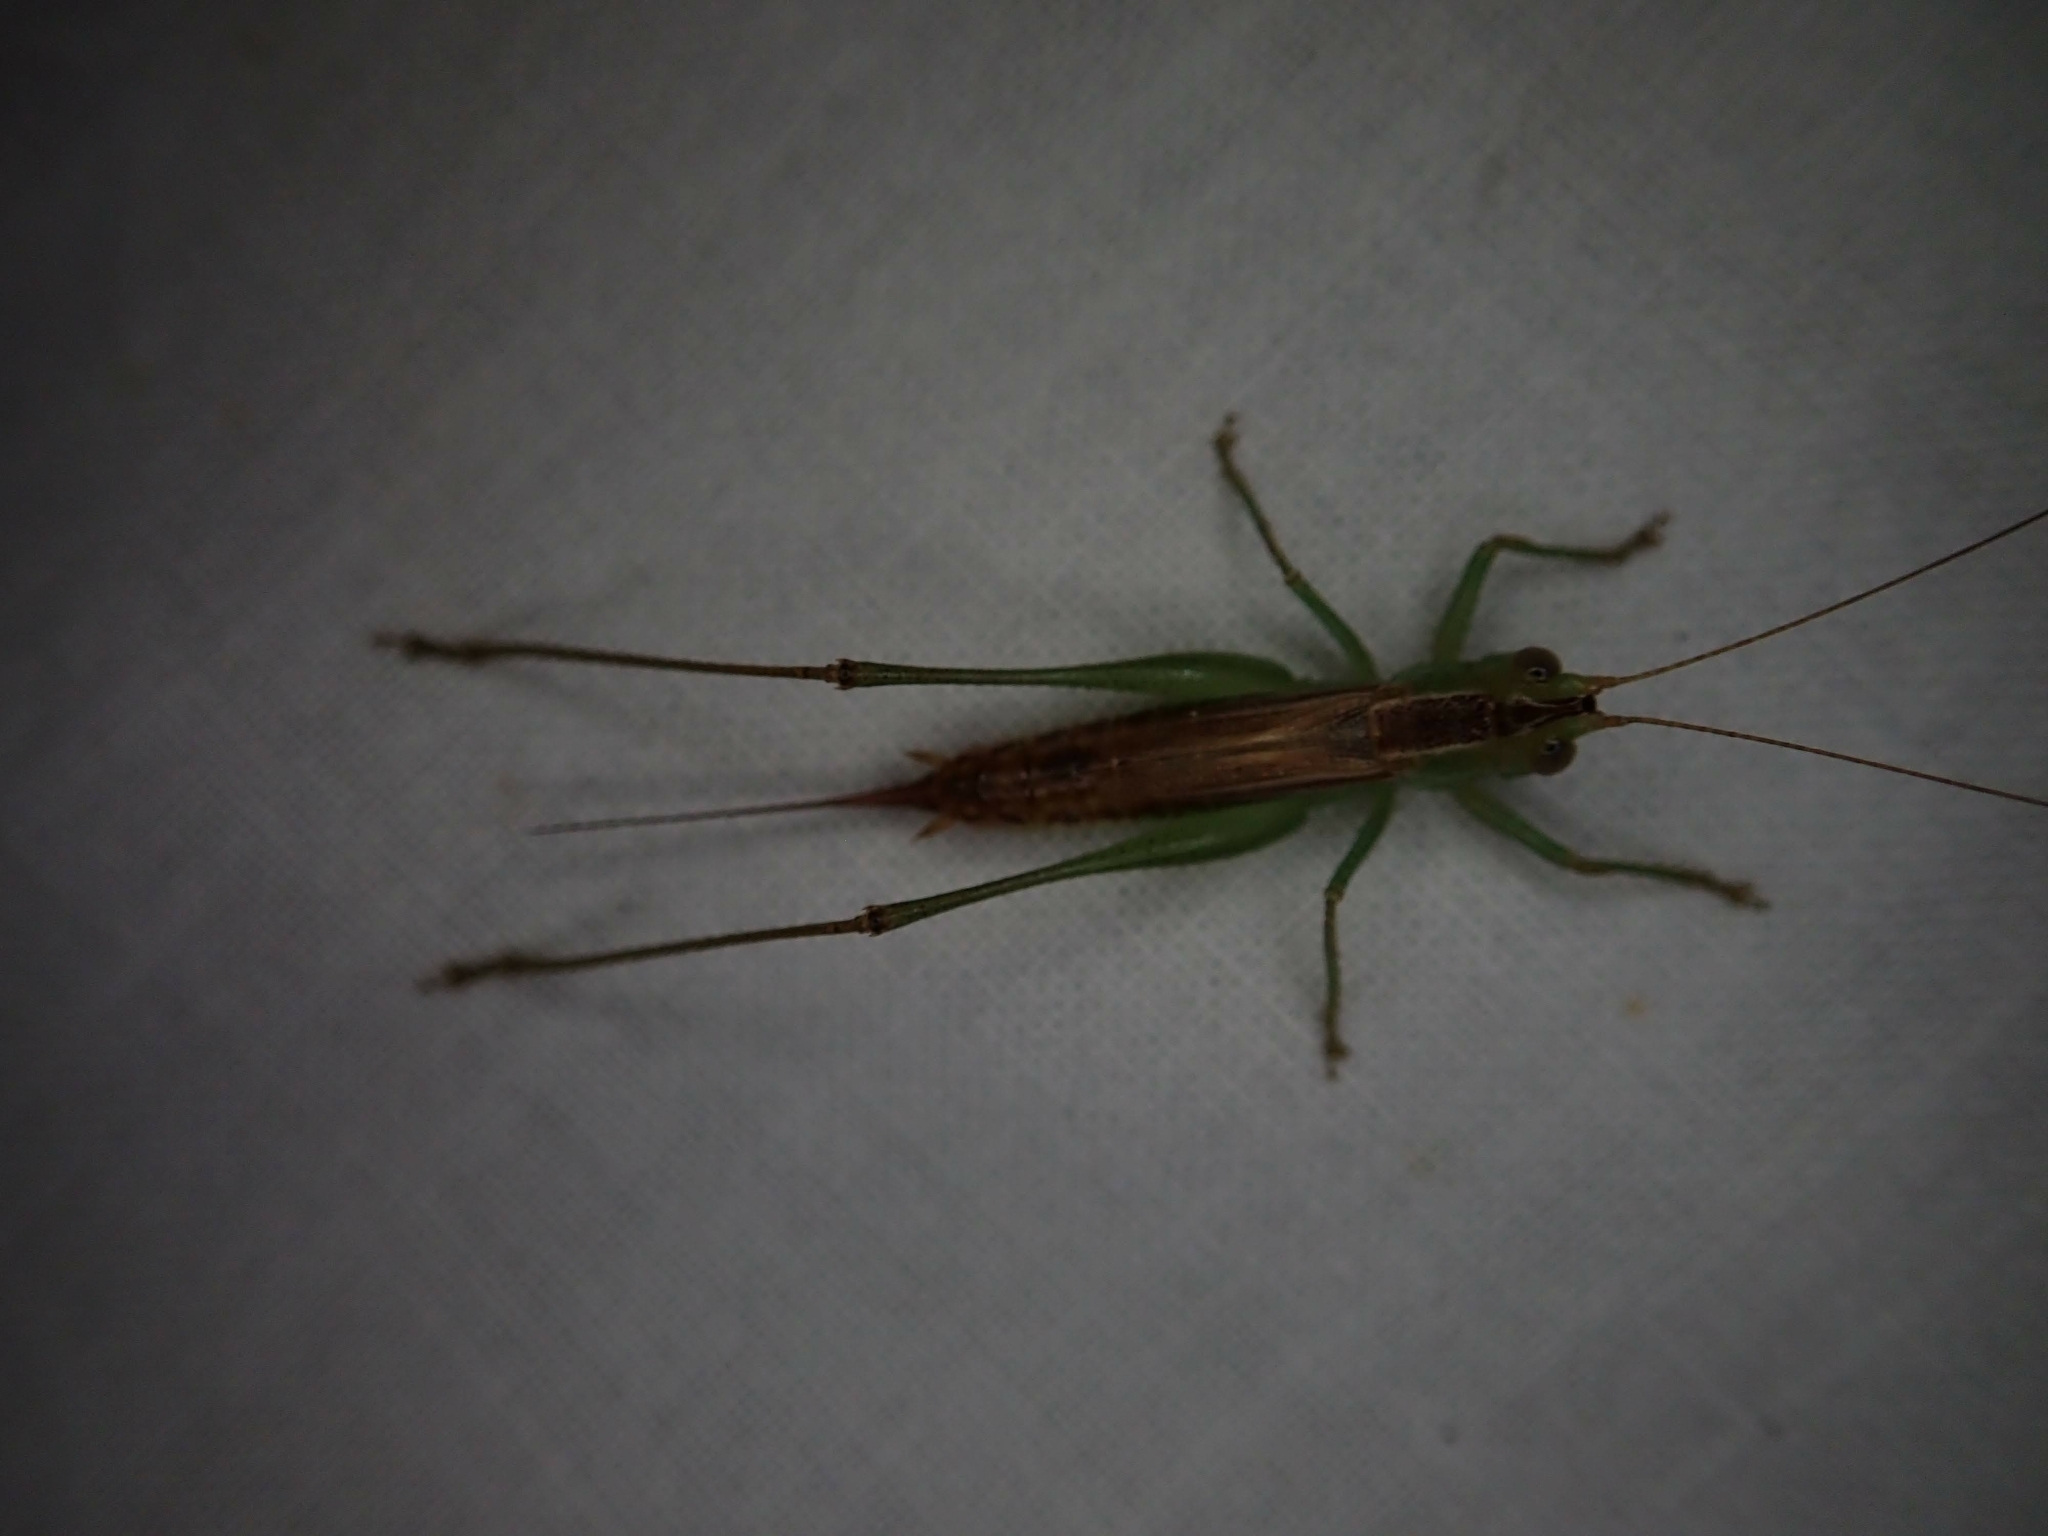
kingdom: Animalia
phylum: Arthropoda
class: Insecta
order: Orthoptera
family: Tettigoniidae
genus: Conocephalus
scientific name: Conocephalus brevipennis
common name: Short-winged meadow katydid
